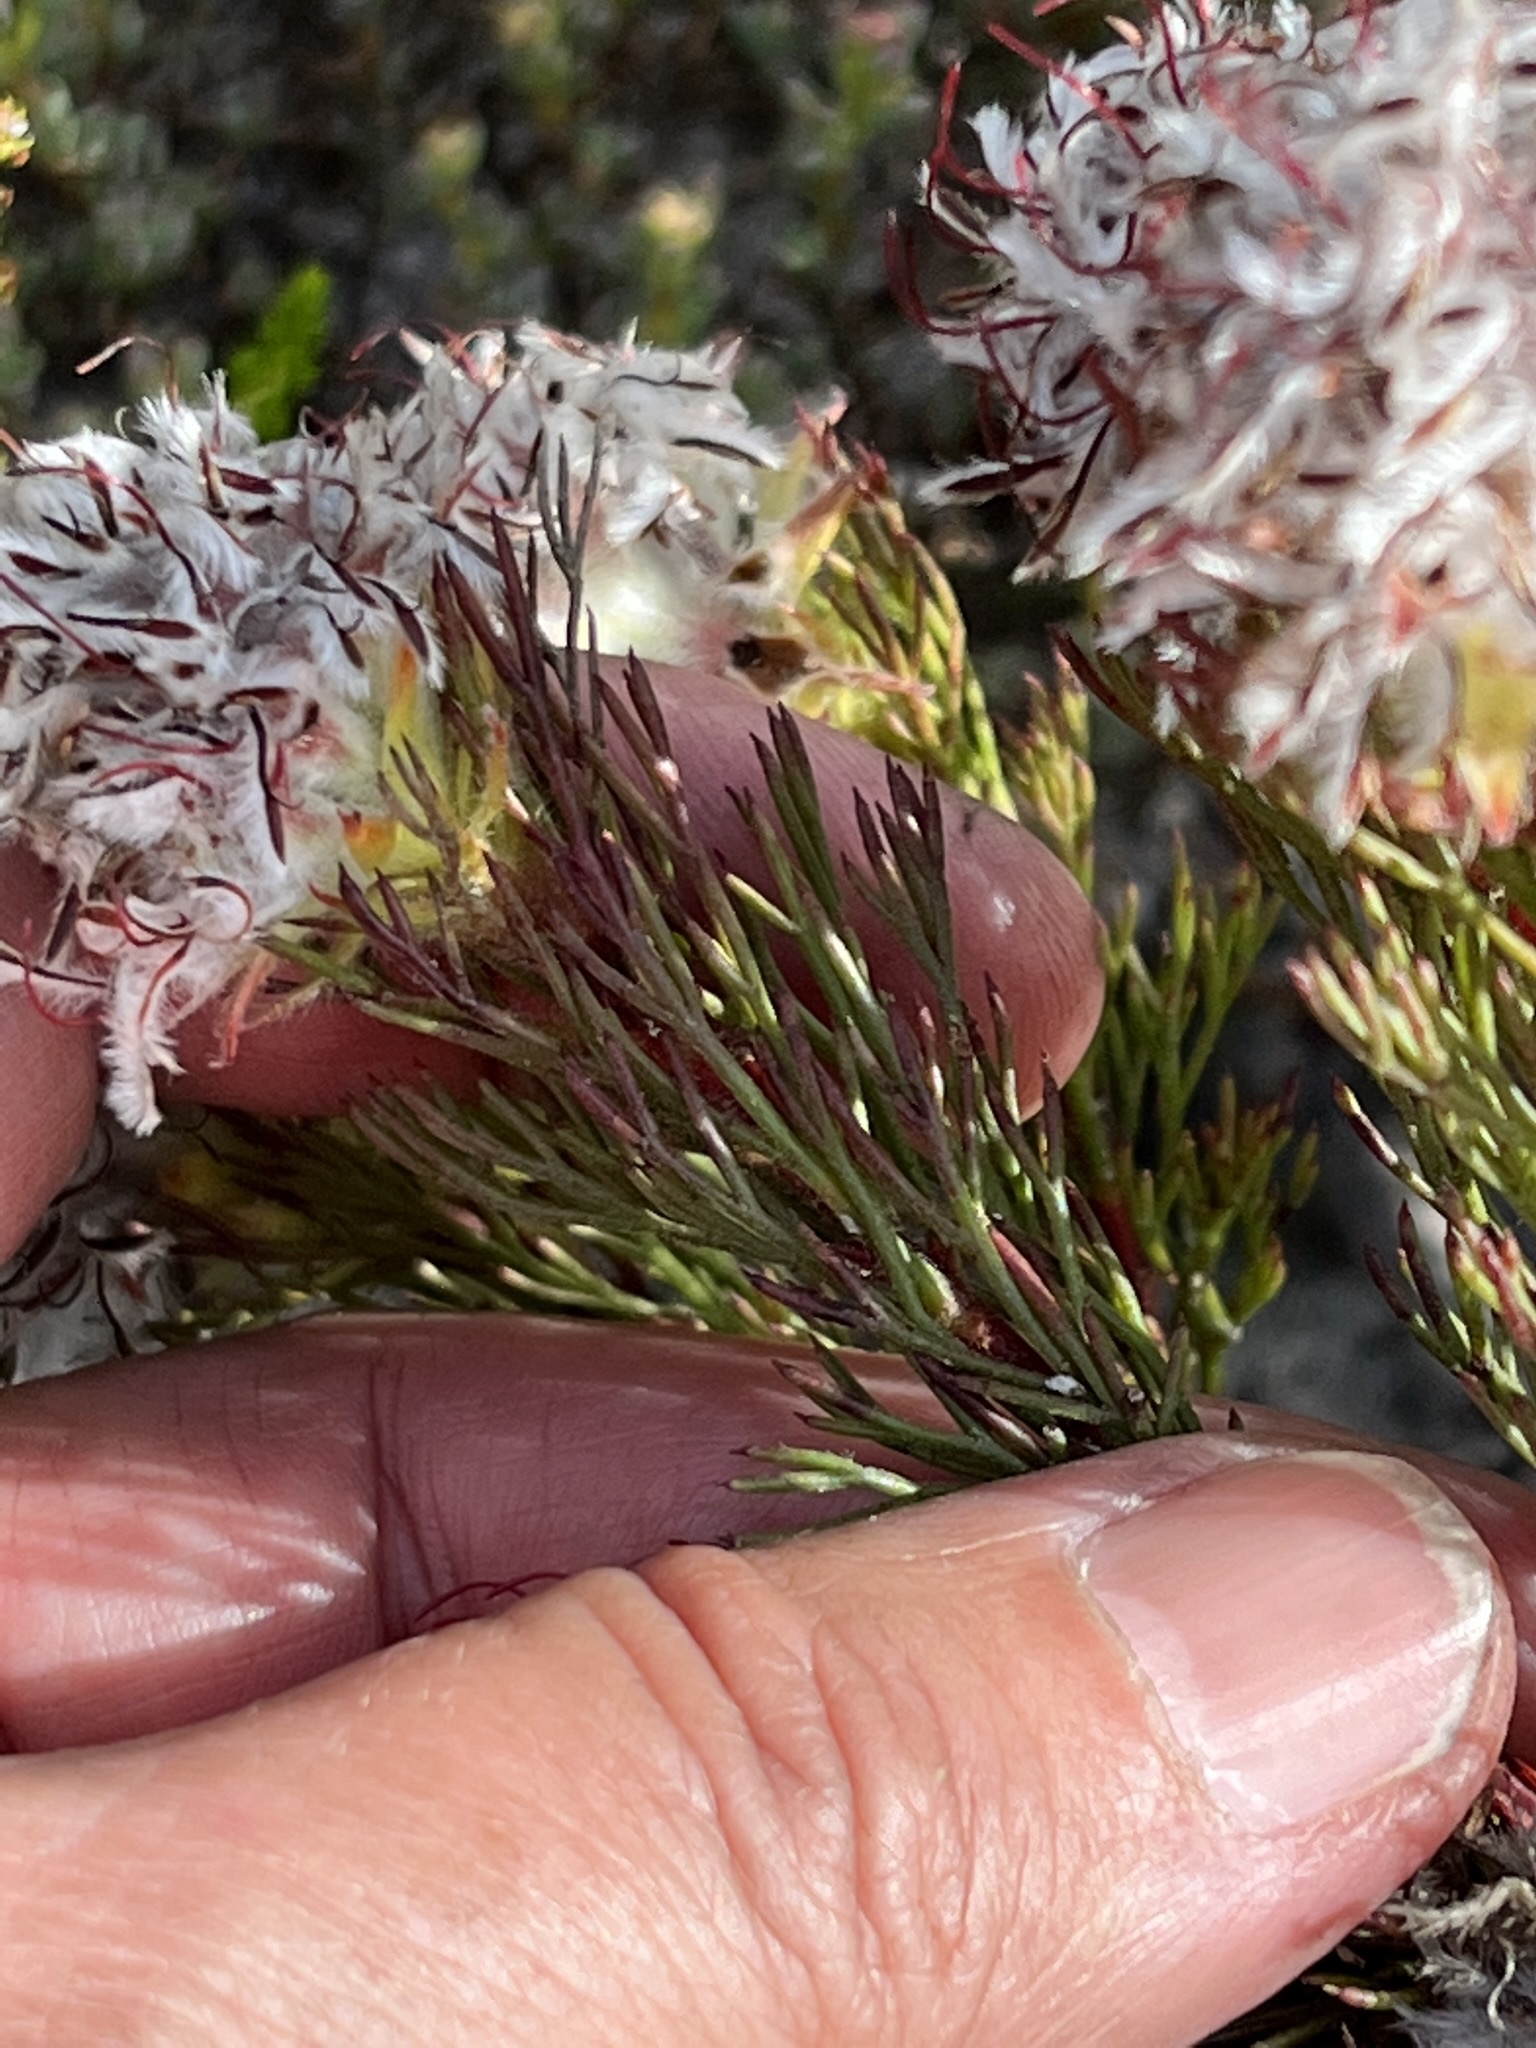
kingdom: Plantae
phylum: Tracheophyta
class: Magnoliopsida
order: Proteales
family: Proteaceae
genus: Serruria
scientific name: Serruria rostellaris
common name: Remote spiderhead
